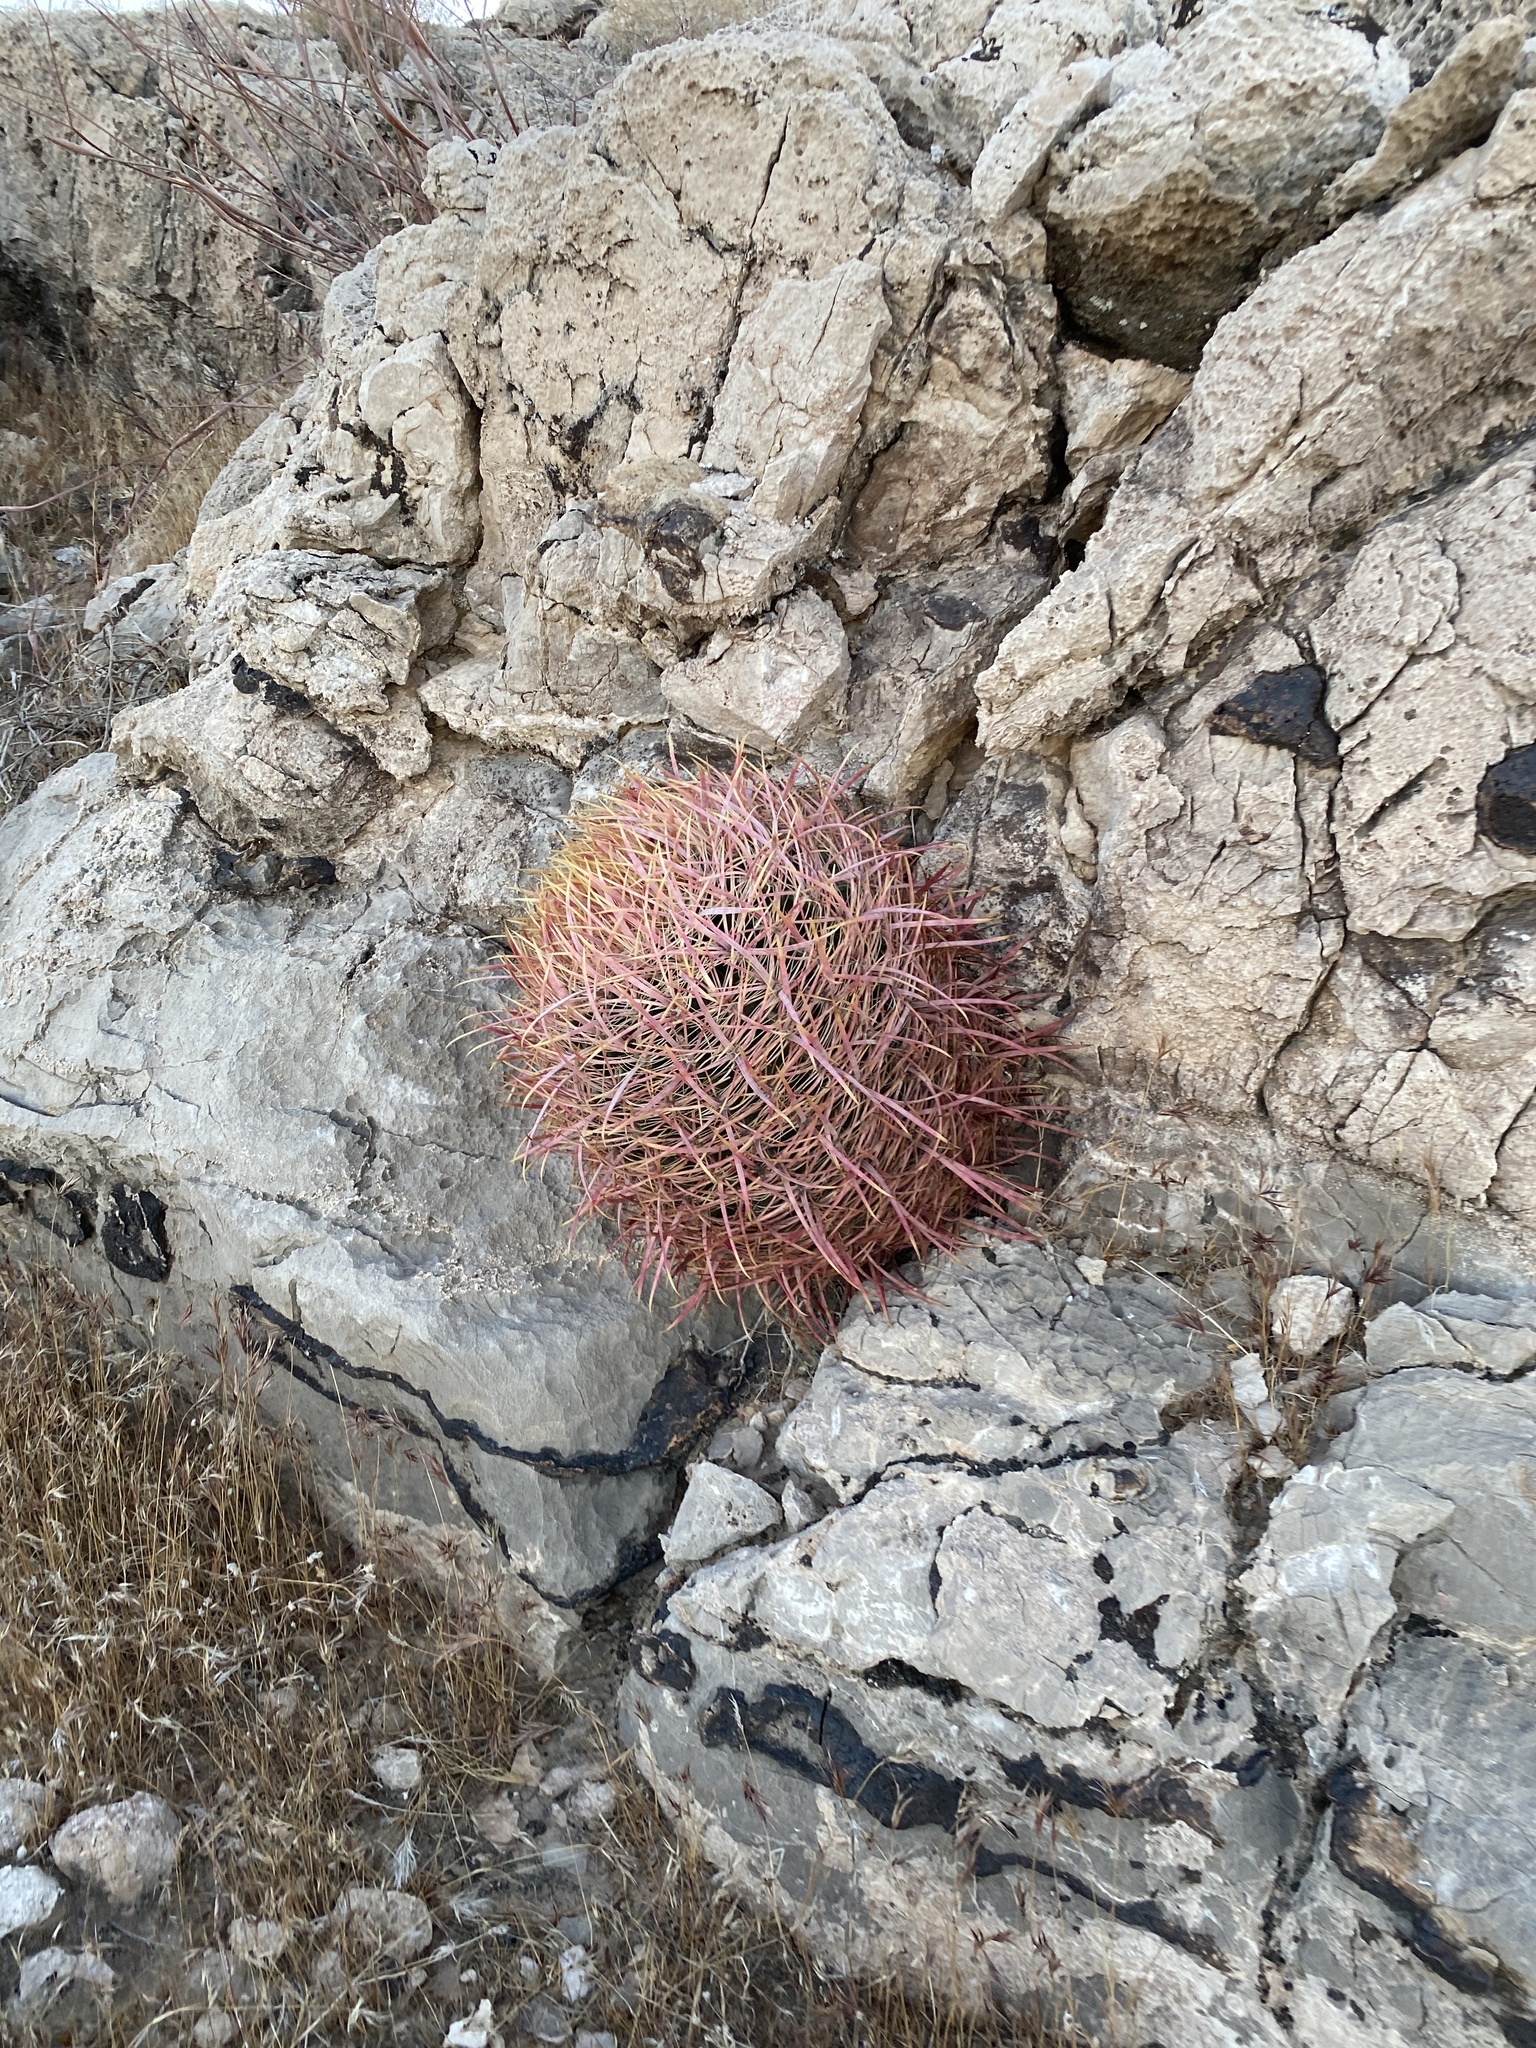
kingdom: Plantae
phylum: Tracheophyta
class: Magnoliopsida
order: Caryophyllales
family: Cactaceae
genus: Ferocactus
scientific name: Ferocactus cylindraceus
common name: California barrel cactus
